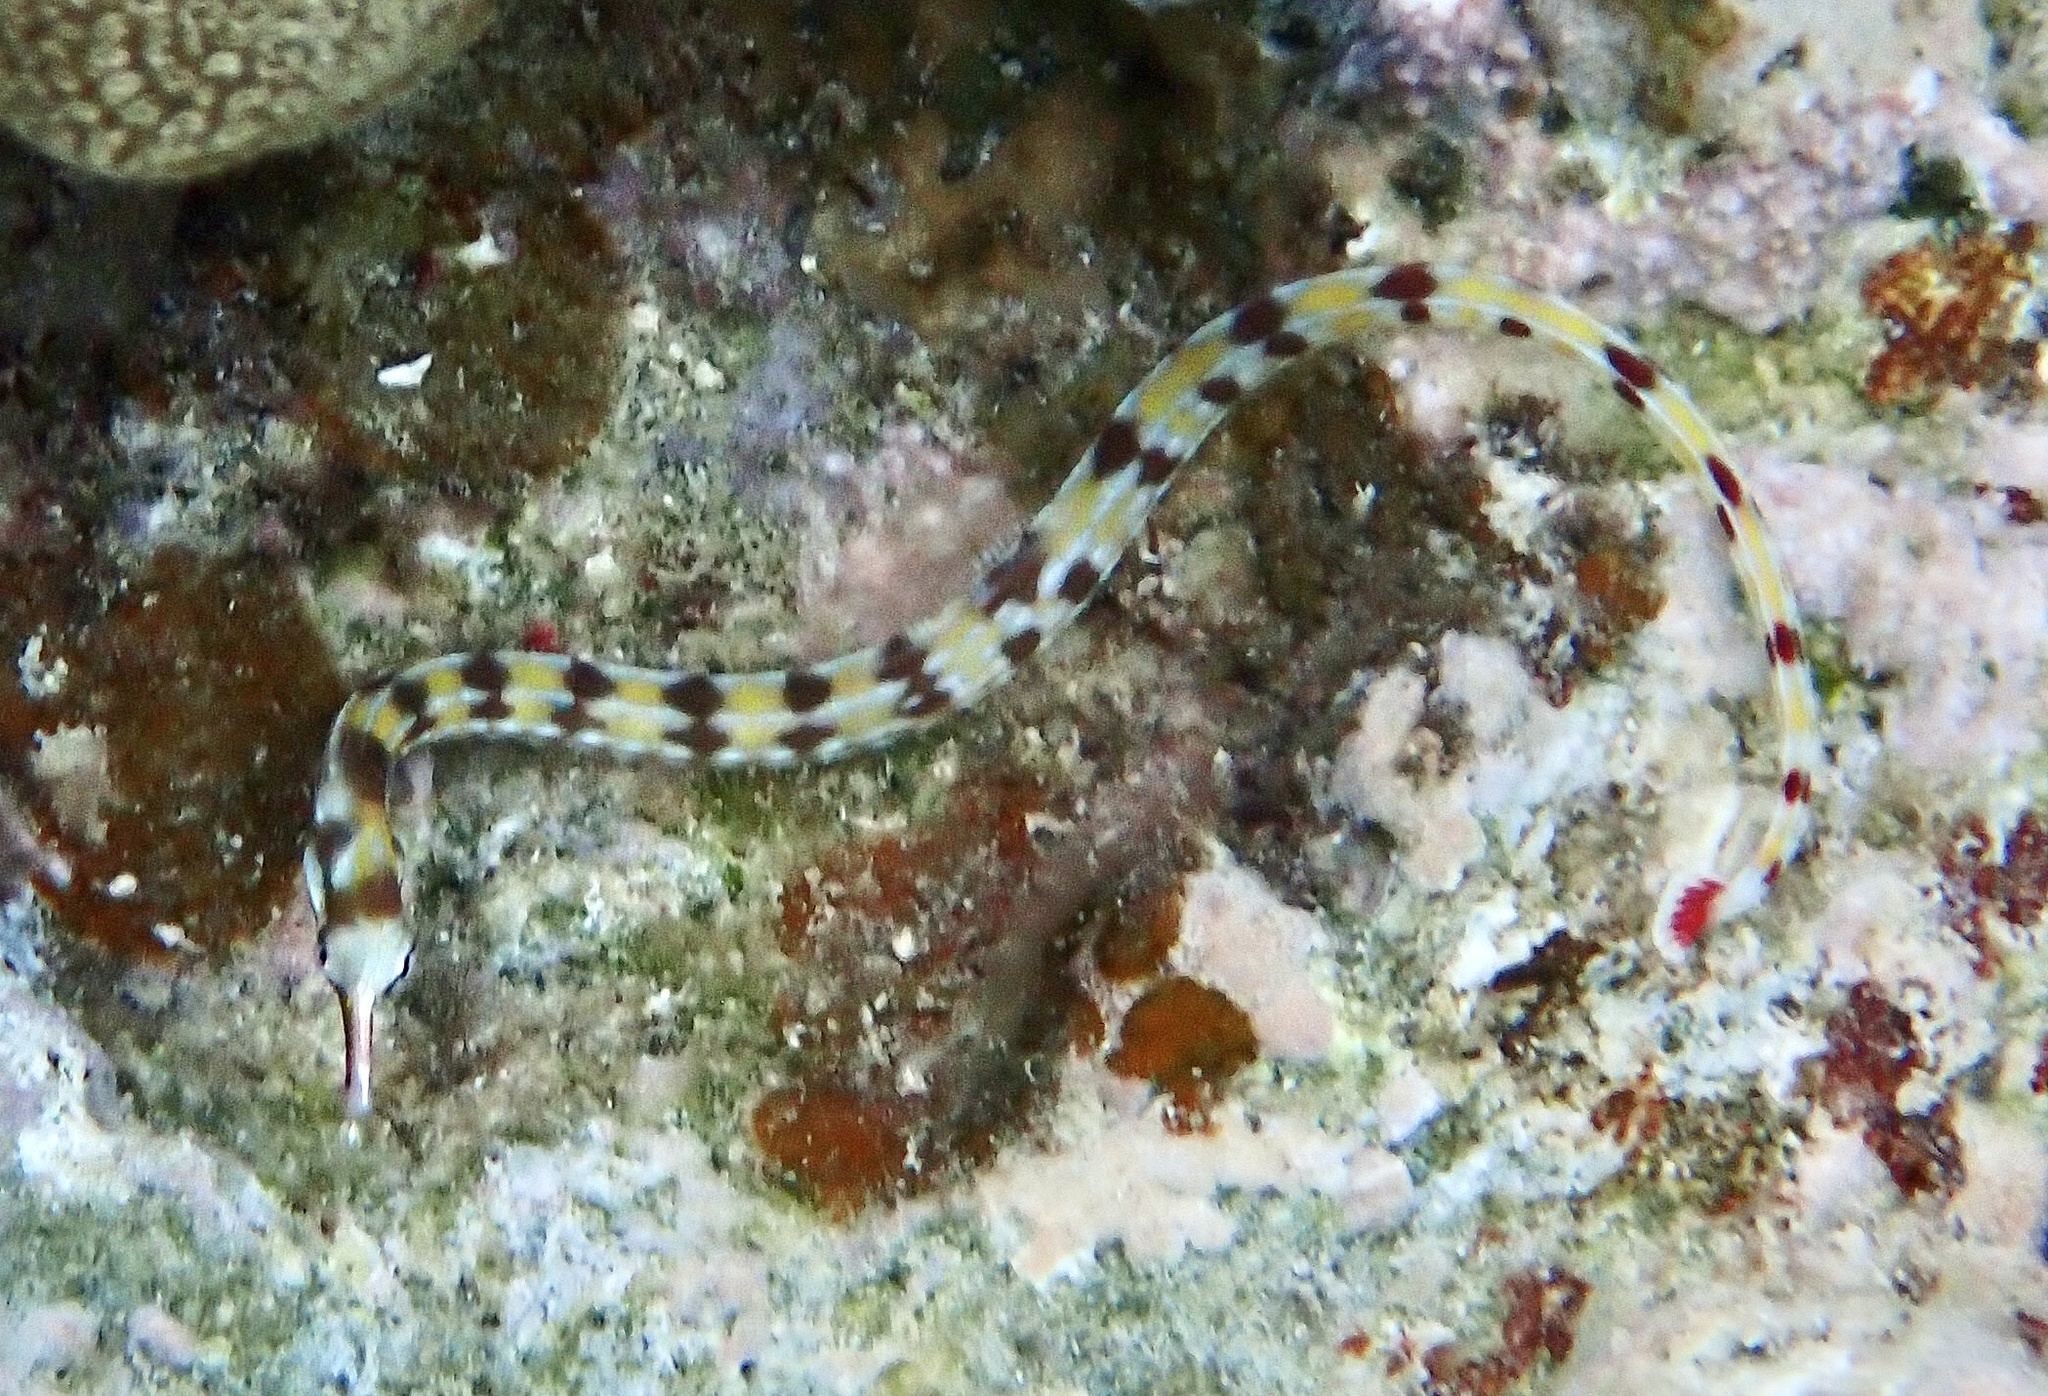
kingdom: Animalia
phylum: Chordata
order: Syngnathiformes
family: Syngnathidae
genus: Corythoichthys
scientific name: Corythoichthys flavofasciatus
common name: Banded pipefish
